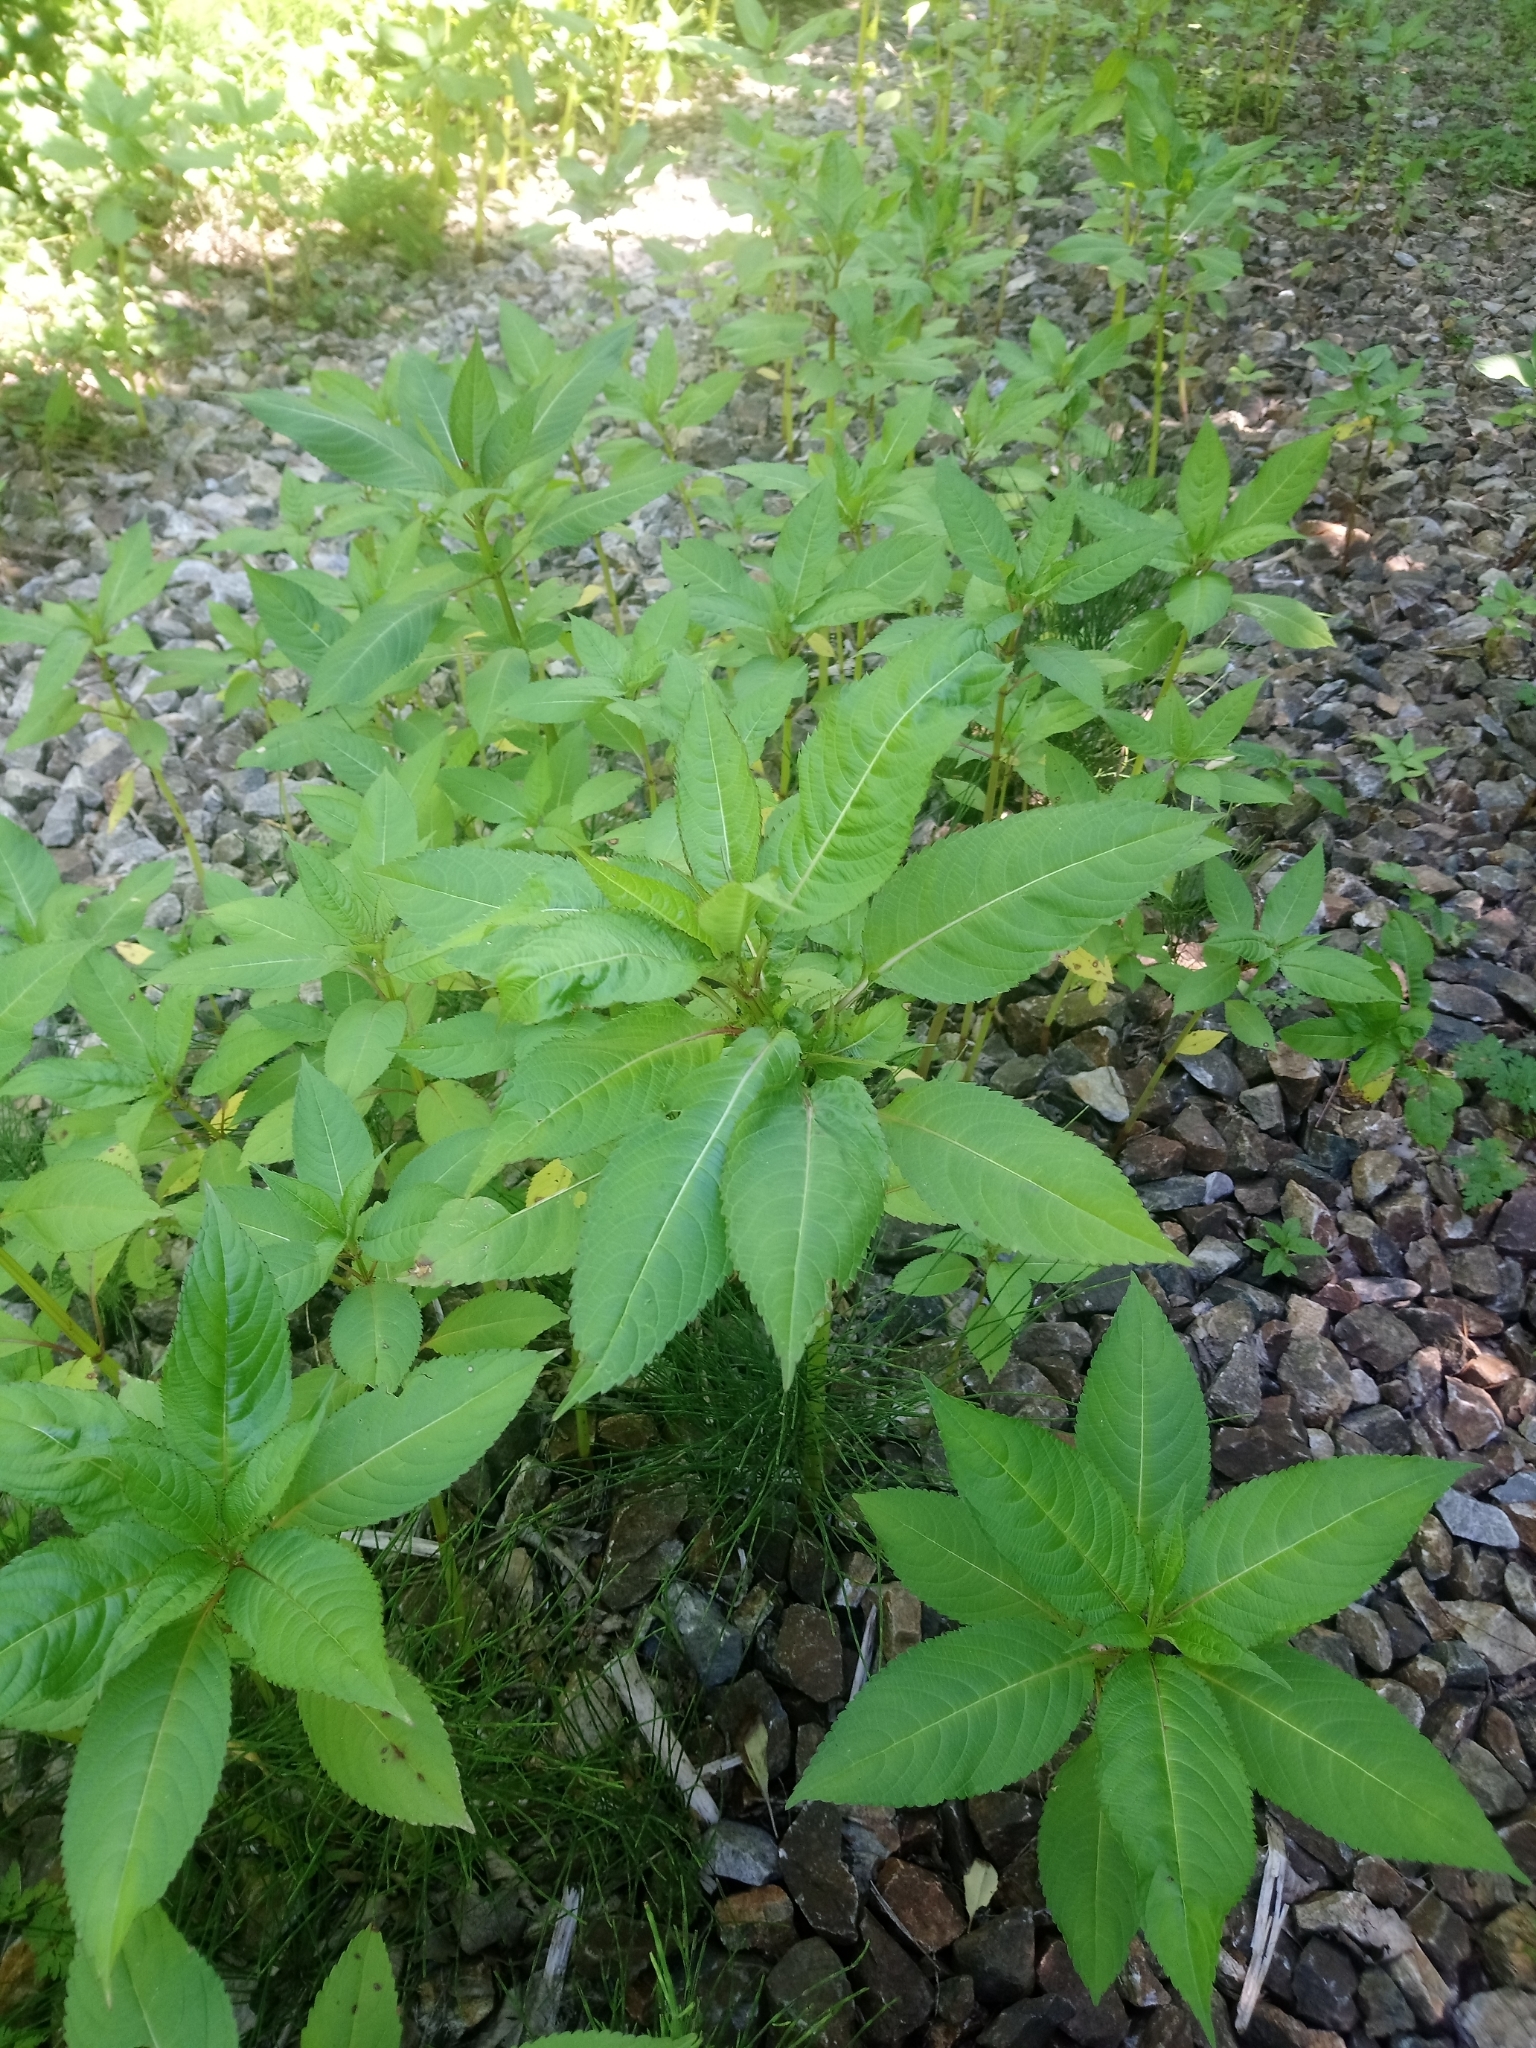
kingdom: Plantae
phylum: Tracheophyta
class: Magnoliopsida
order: Ericales
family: Balsaminaceae
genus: Impatiens
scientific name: Impatiens glandulifera
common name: Himalayan balsam
